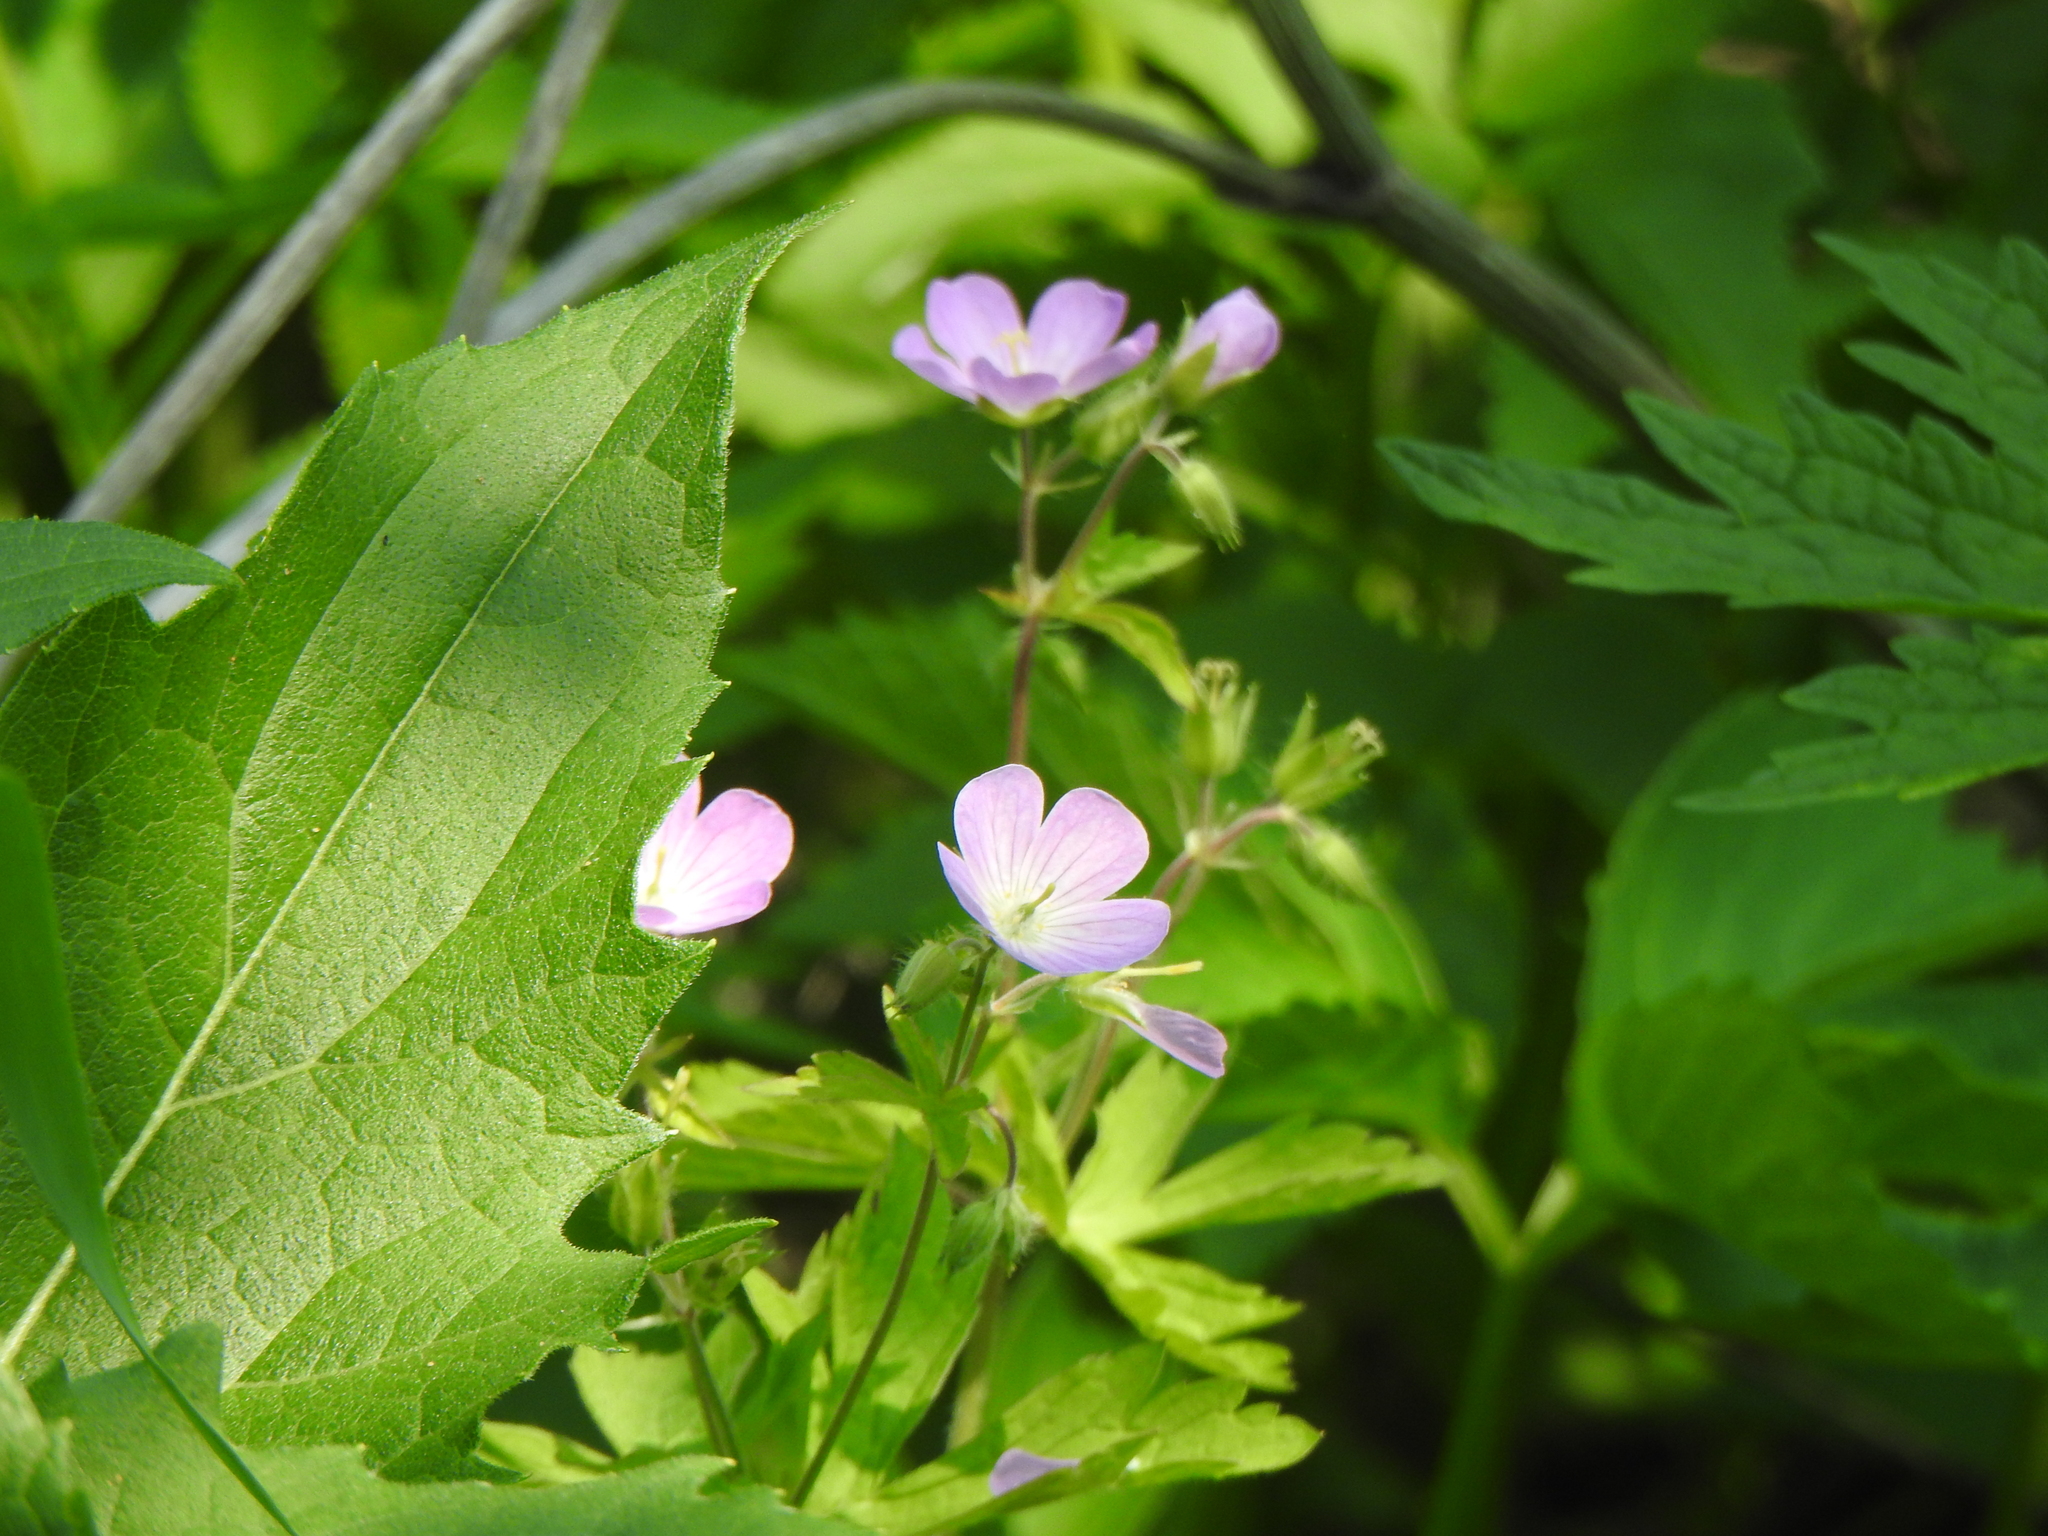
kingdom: Plantae
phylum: Tracheophyta
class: Magnoliopsida
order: Geraniales
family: Geraniaceae
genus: Geranium
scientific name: Geranium maculatum
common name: Spotted geranium
